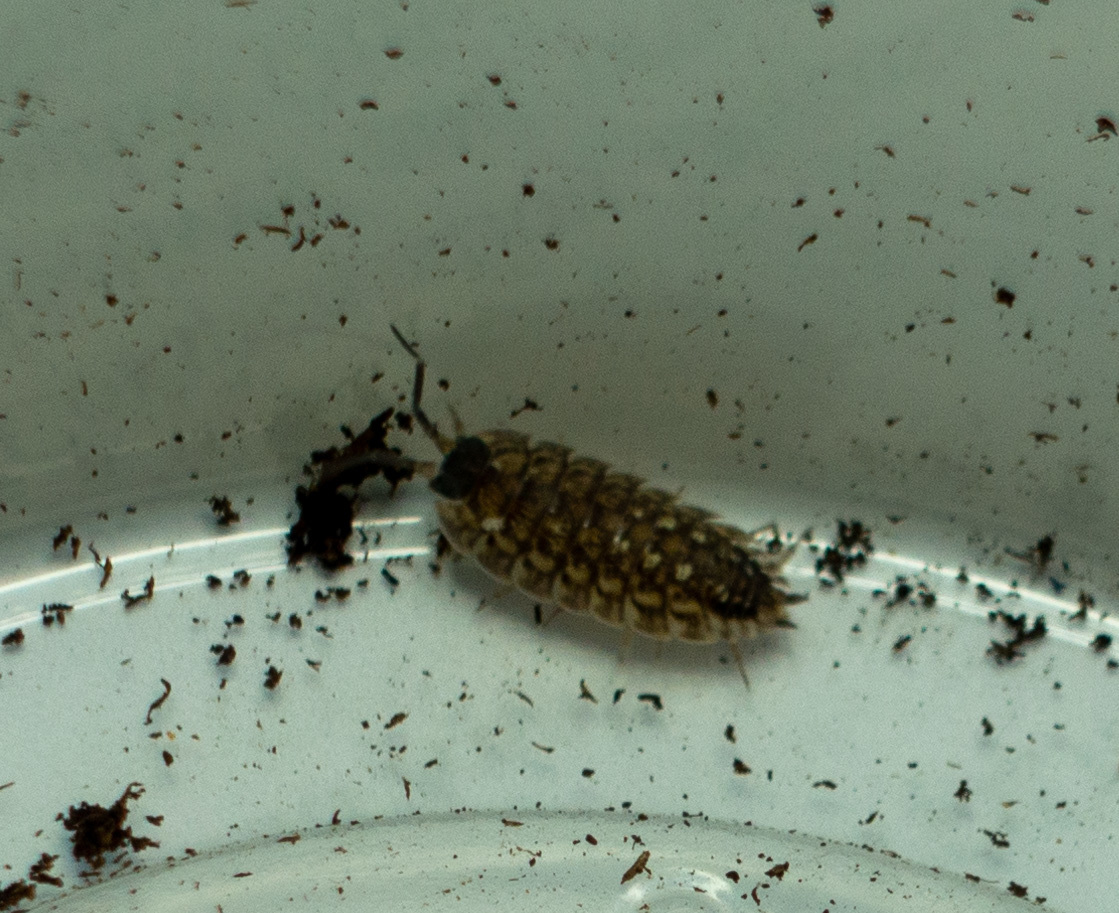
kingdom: Animalia
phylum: Arthropoda
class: Malacostraca
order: Isopoda
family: Porcellionidae
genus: Porcellio
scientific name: Porcellio spinicornis
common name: Painted woodlouse
